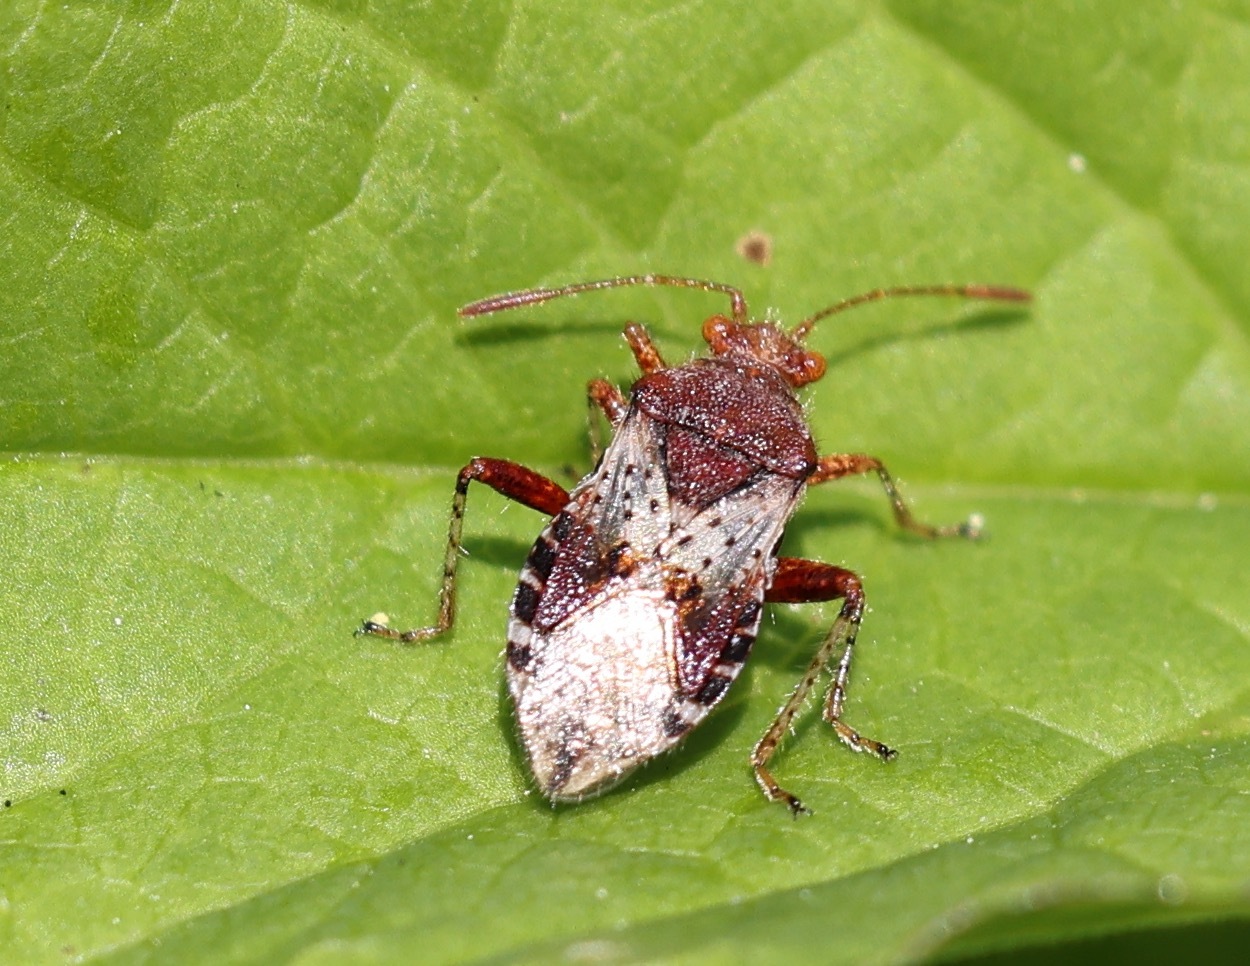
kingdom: Animalia
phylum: Arthropoda
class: Insecta
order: Hemiptera
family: Rhopalidae
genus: Rhopalus
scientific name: Rhopalus subrufus
